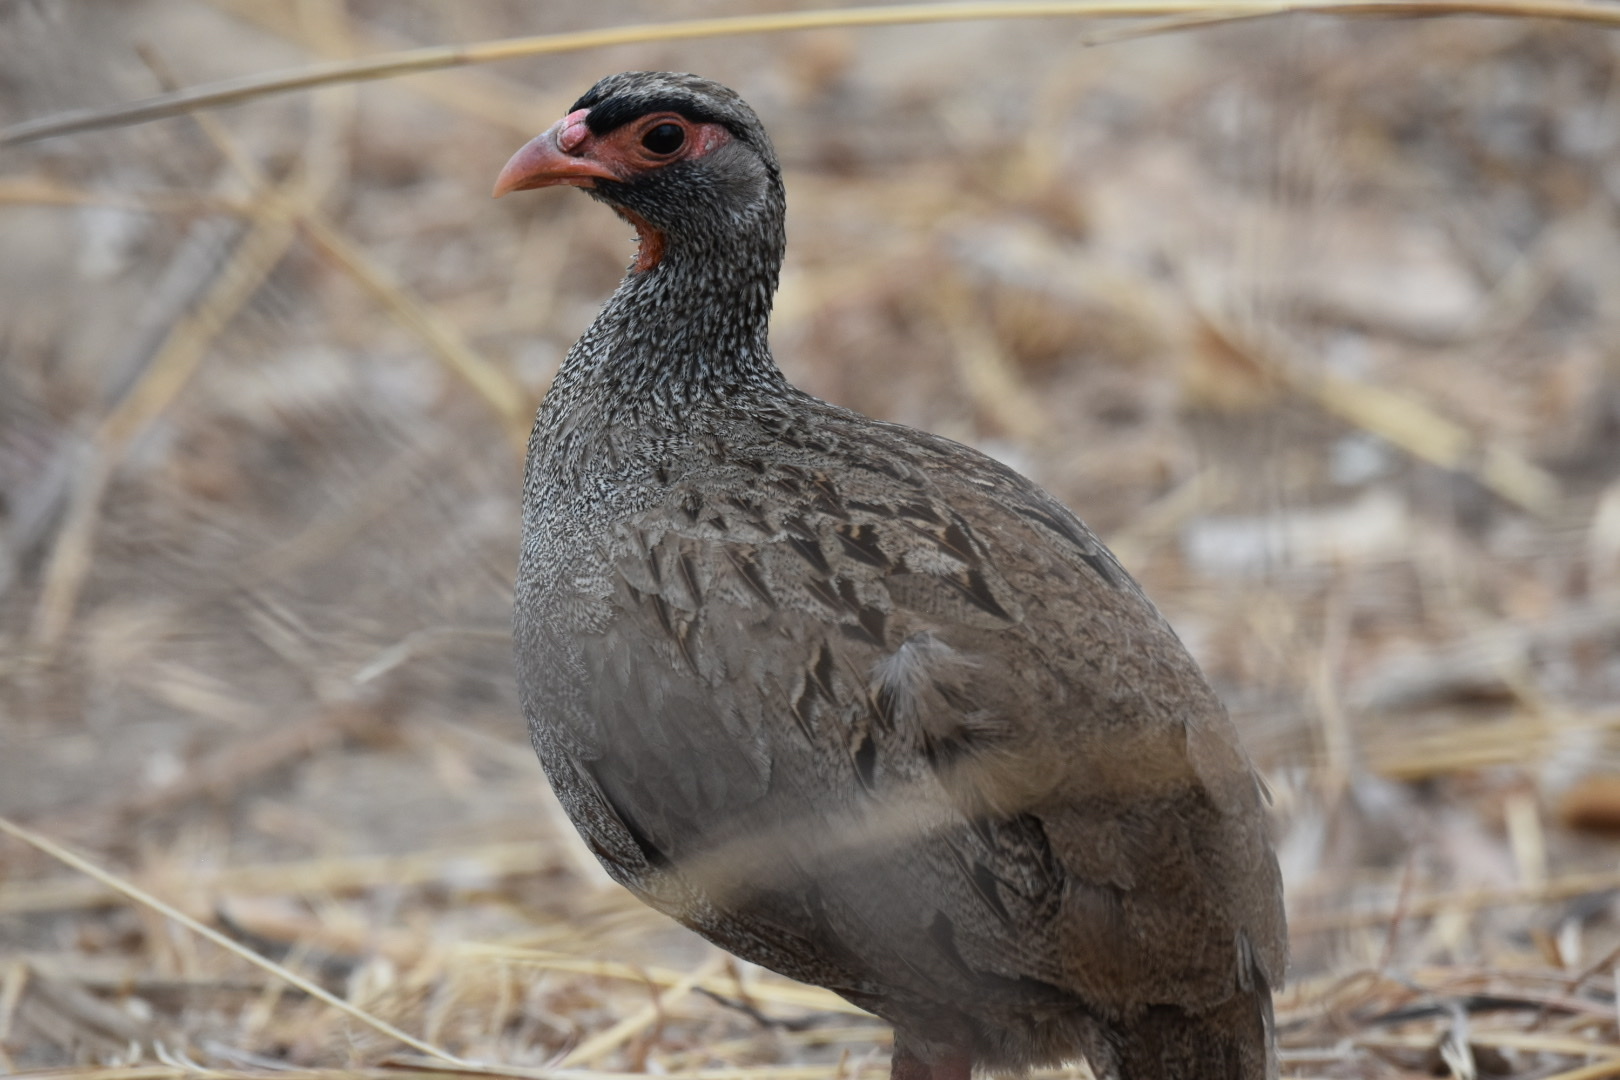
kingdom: Animalia
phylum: Chordata
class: Aves
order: Galliformes
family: Phasianidae
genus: Pternistis
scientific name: Pternistis afer
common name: Red-necked spurfowl
